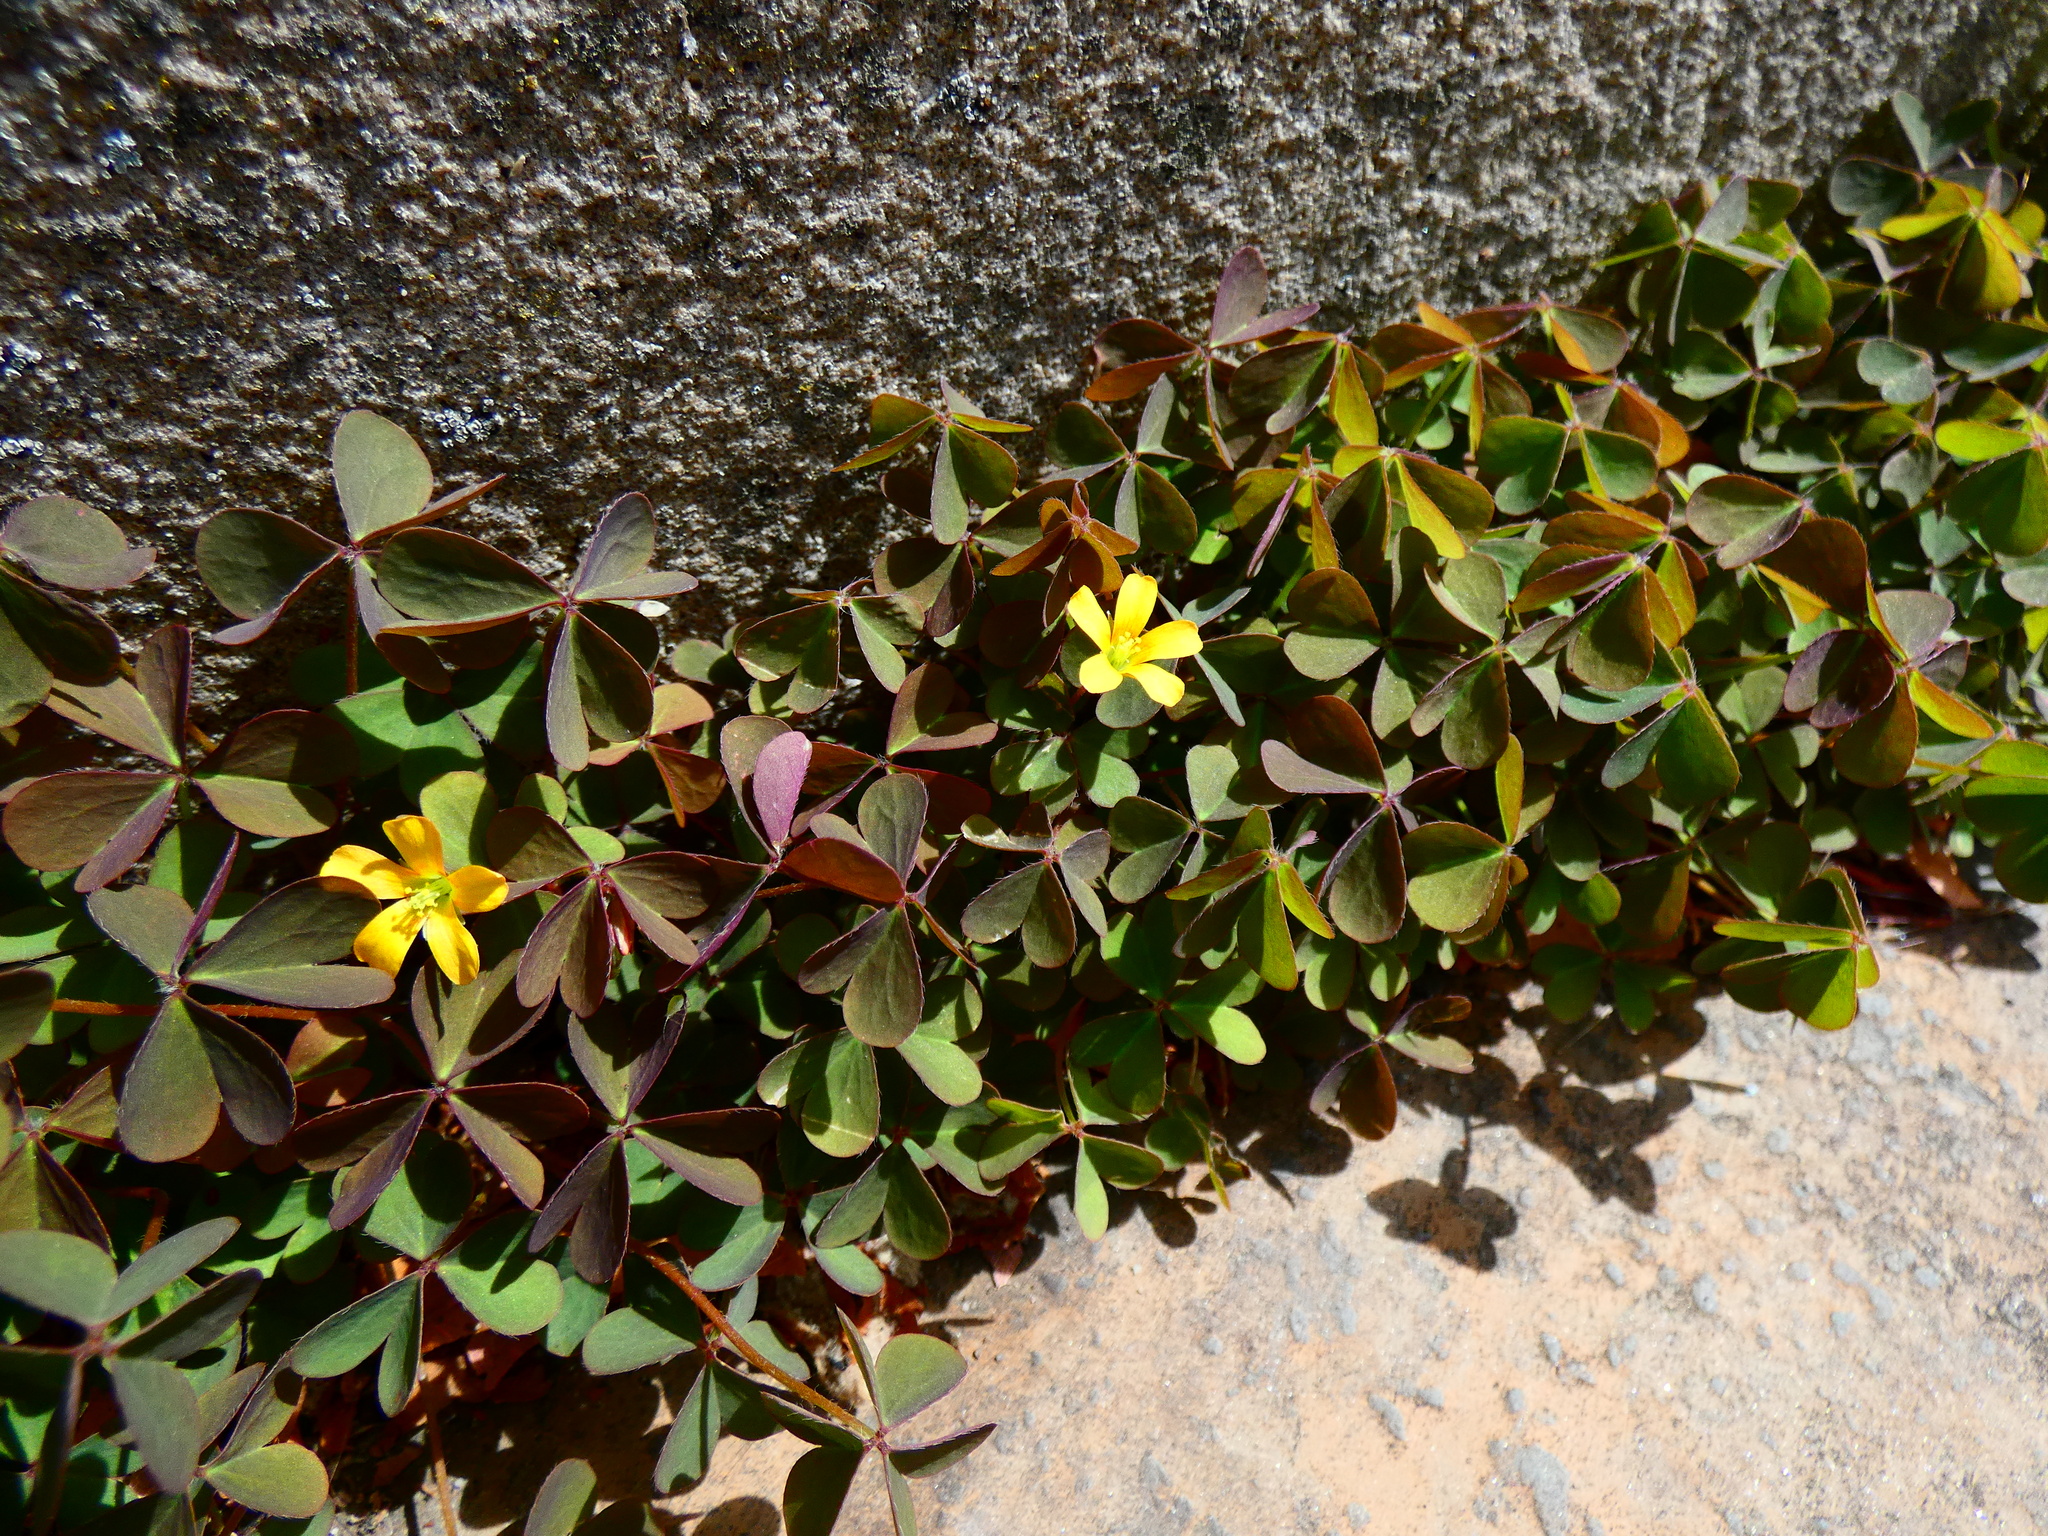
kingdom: Plantae
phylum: Tracheophyta
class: Magnoliopsida
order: Oxalidales
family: Oxalidaceae
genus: Oxalis
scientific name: Oxalis corniculata
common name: Procumbent yellow-sorrel
